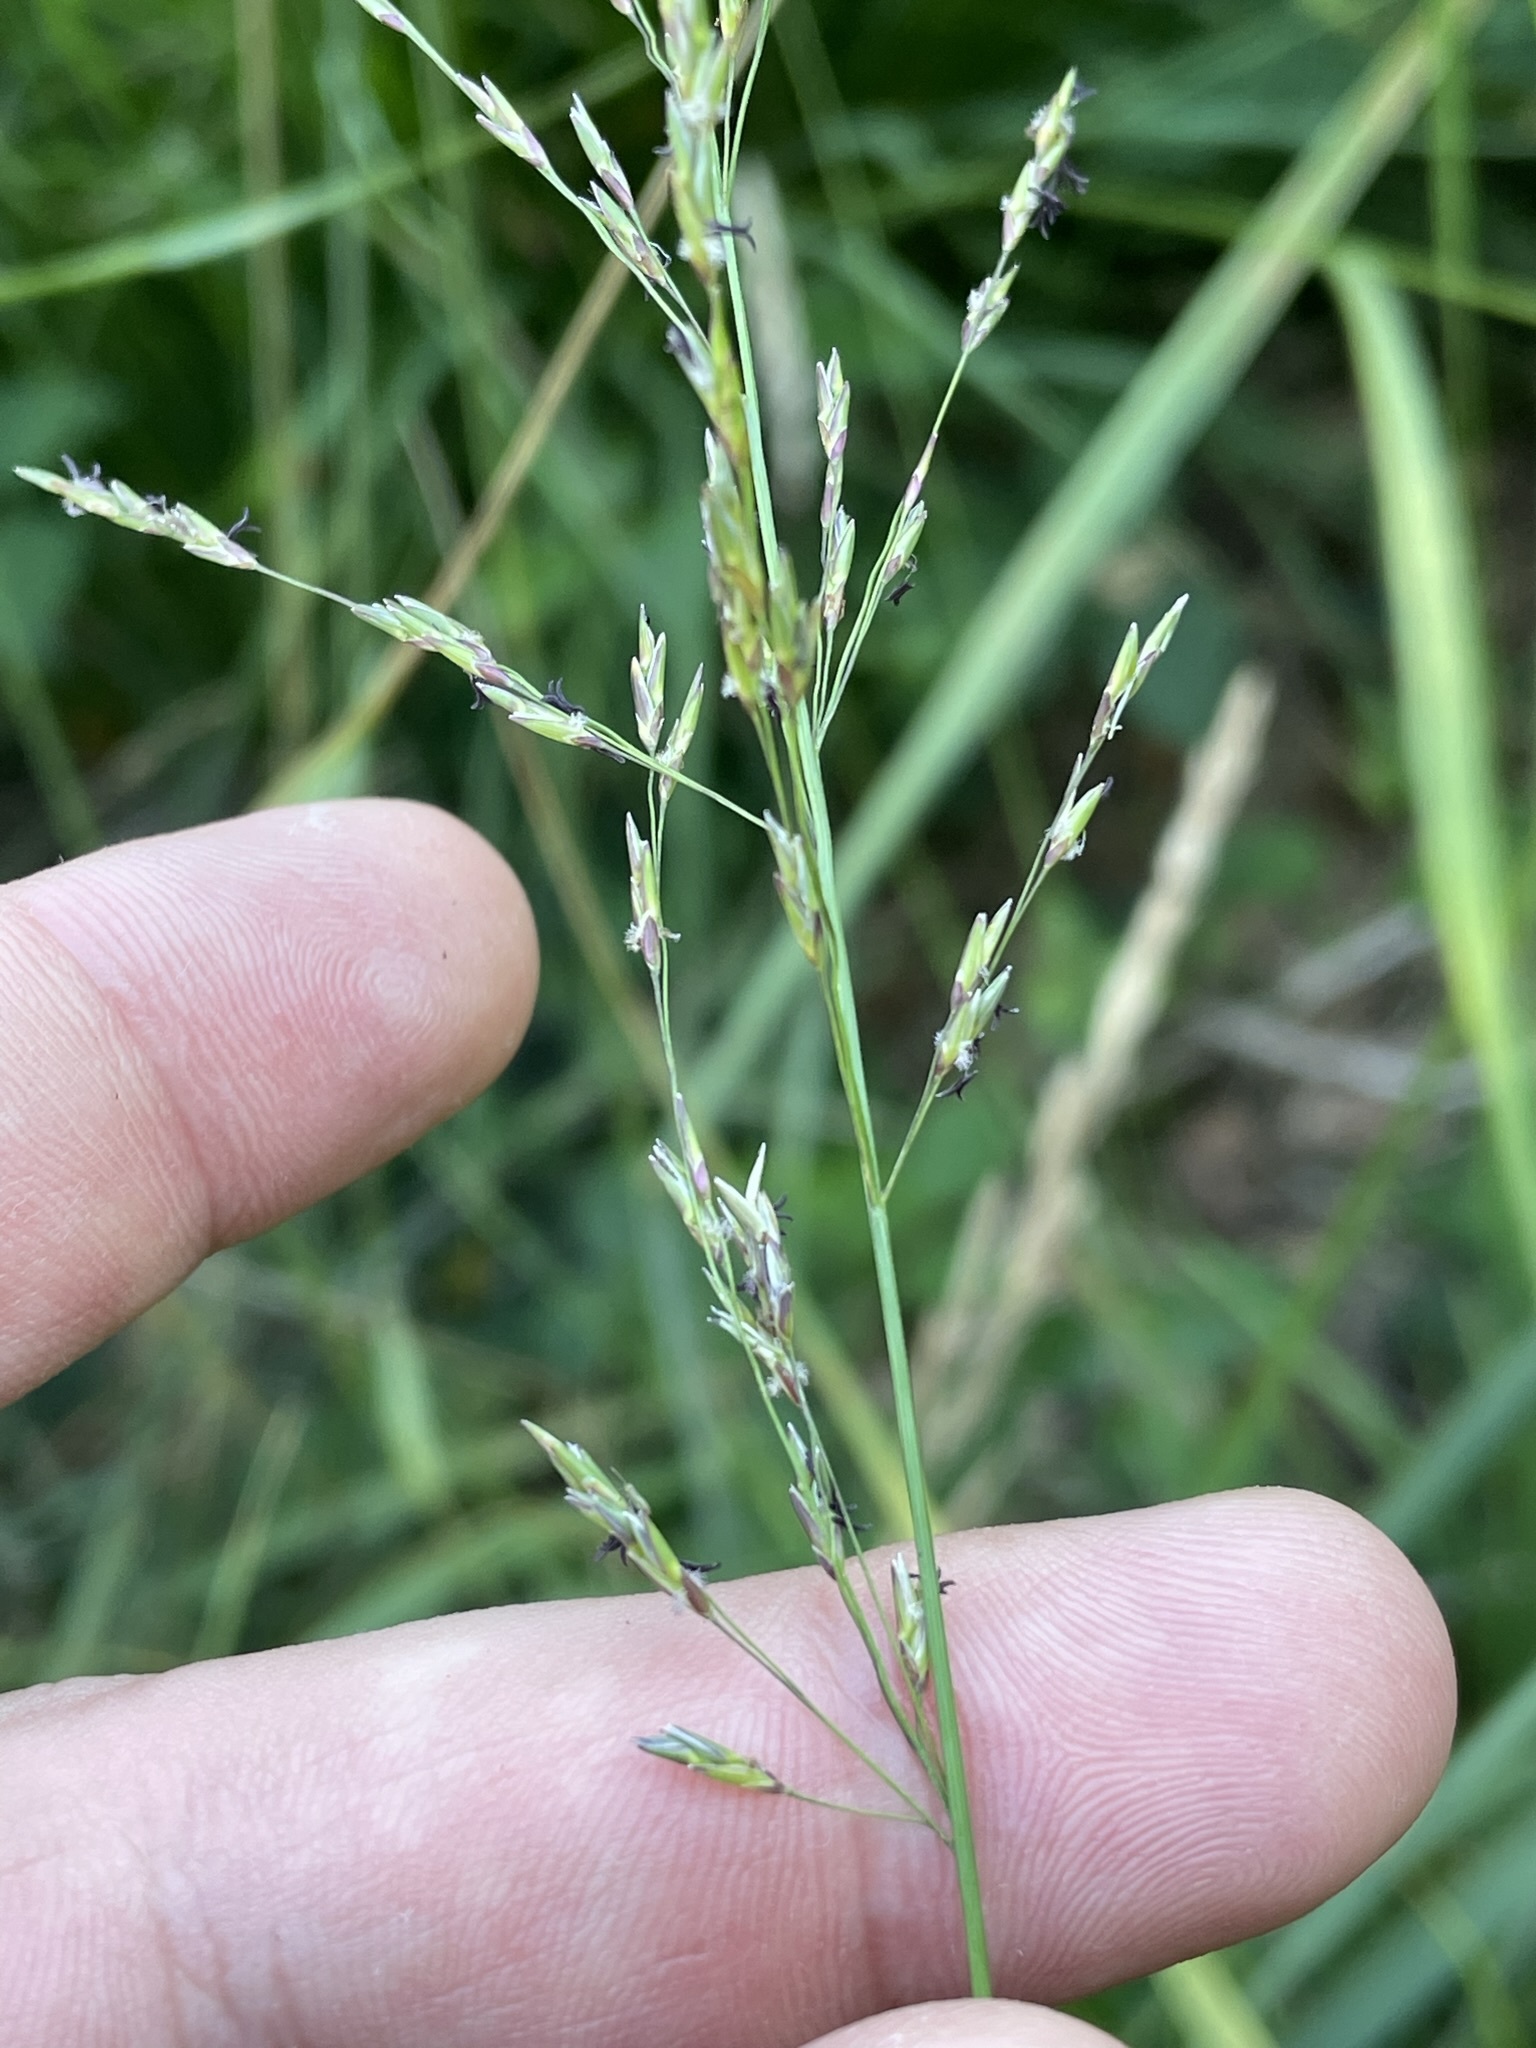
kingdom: Plantae
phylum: Tracheophyta
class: Liliopsida
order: Poales
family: Poaceae
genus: Molinia
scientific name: Molinia caerulea
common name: Purple moor-grass
